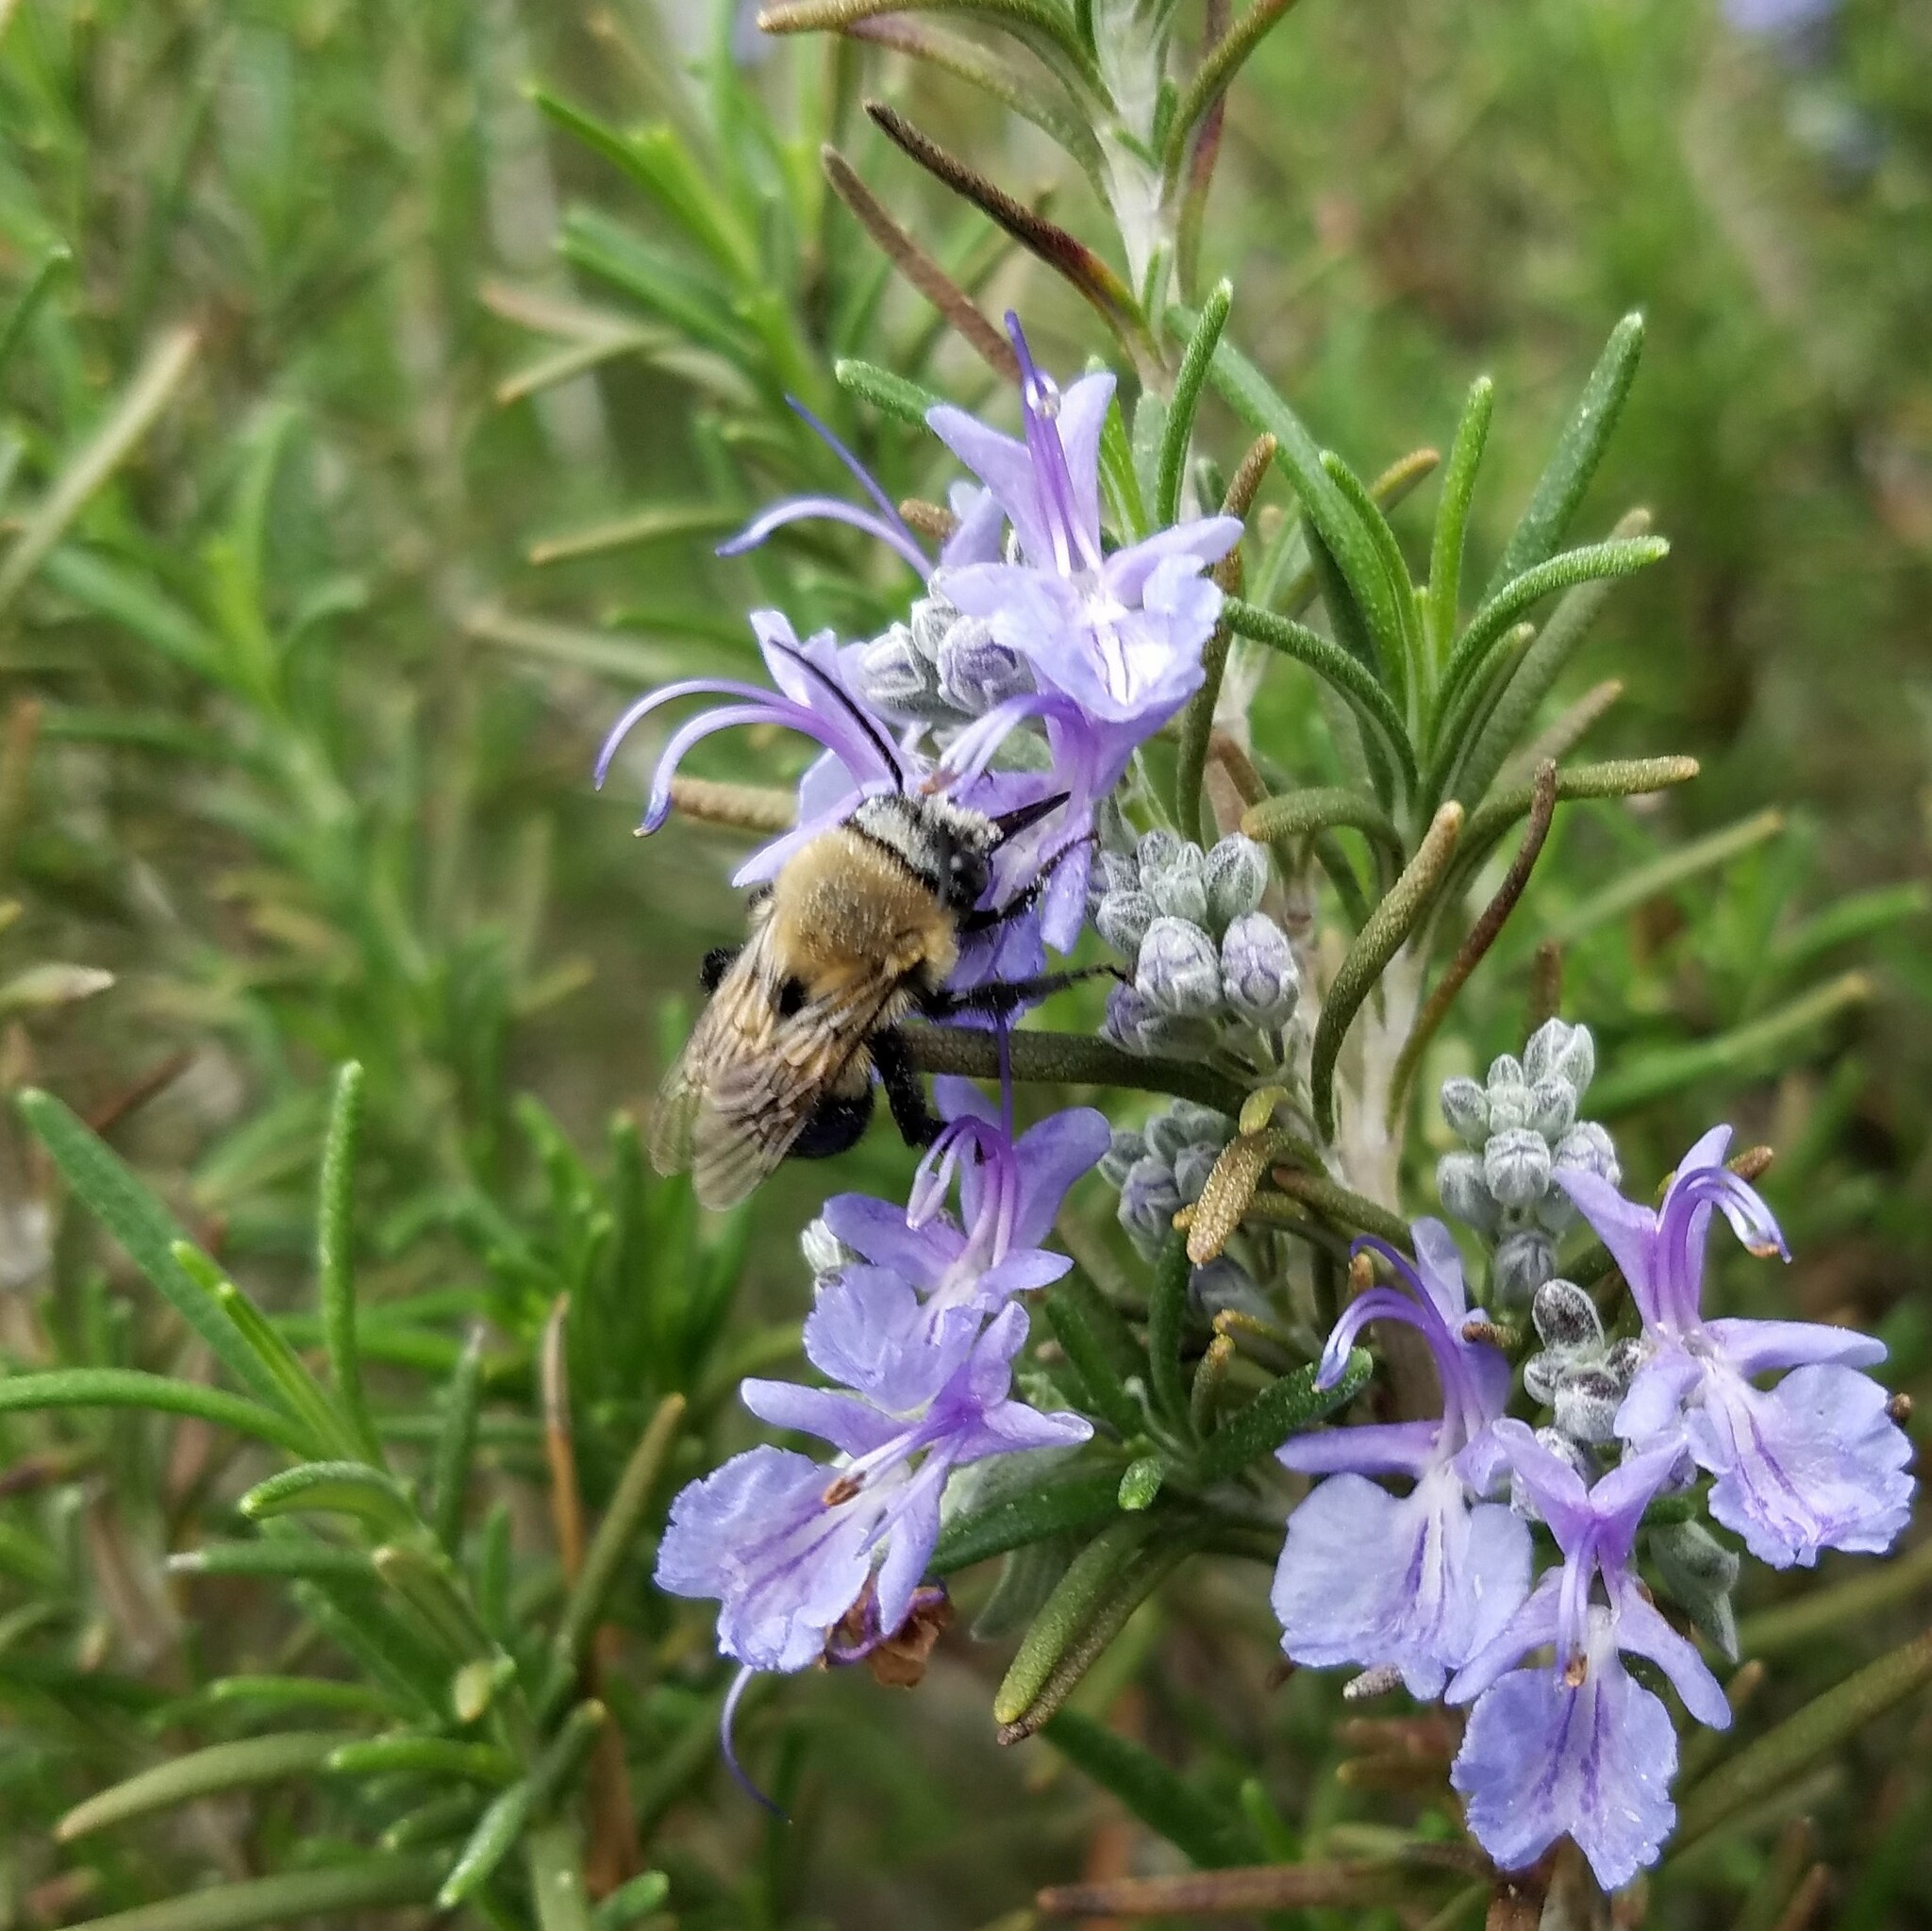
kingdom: Animalia
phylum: Arthropoda
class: Insecta
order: Hymenoptera
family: Apidae
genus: Habropoda
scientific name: Habropoda laboriosa
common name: Southeastern blueberry bee
